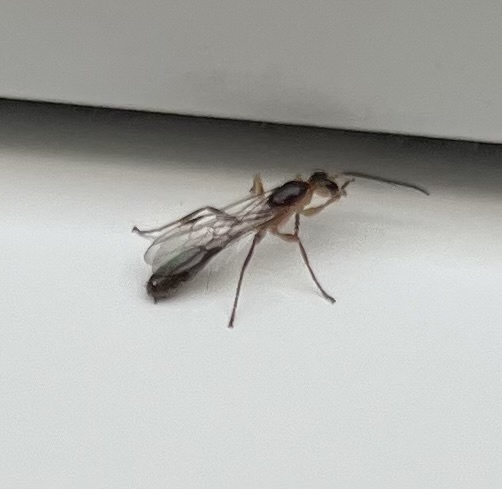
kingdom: Animalia
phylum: Arthropoda
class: Insecta
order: Hymenoptera
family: Formicidae
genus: Pseudomyrmex
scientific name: Pseudomyrmex gracilis
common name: Graceful twig ant
